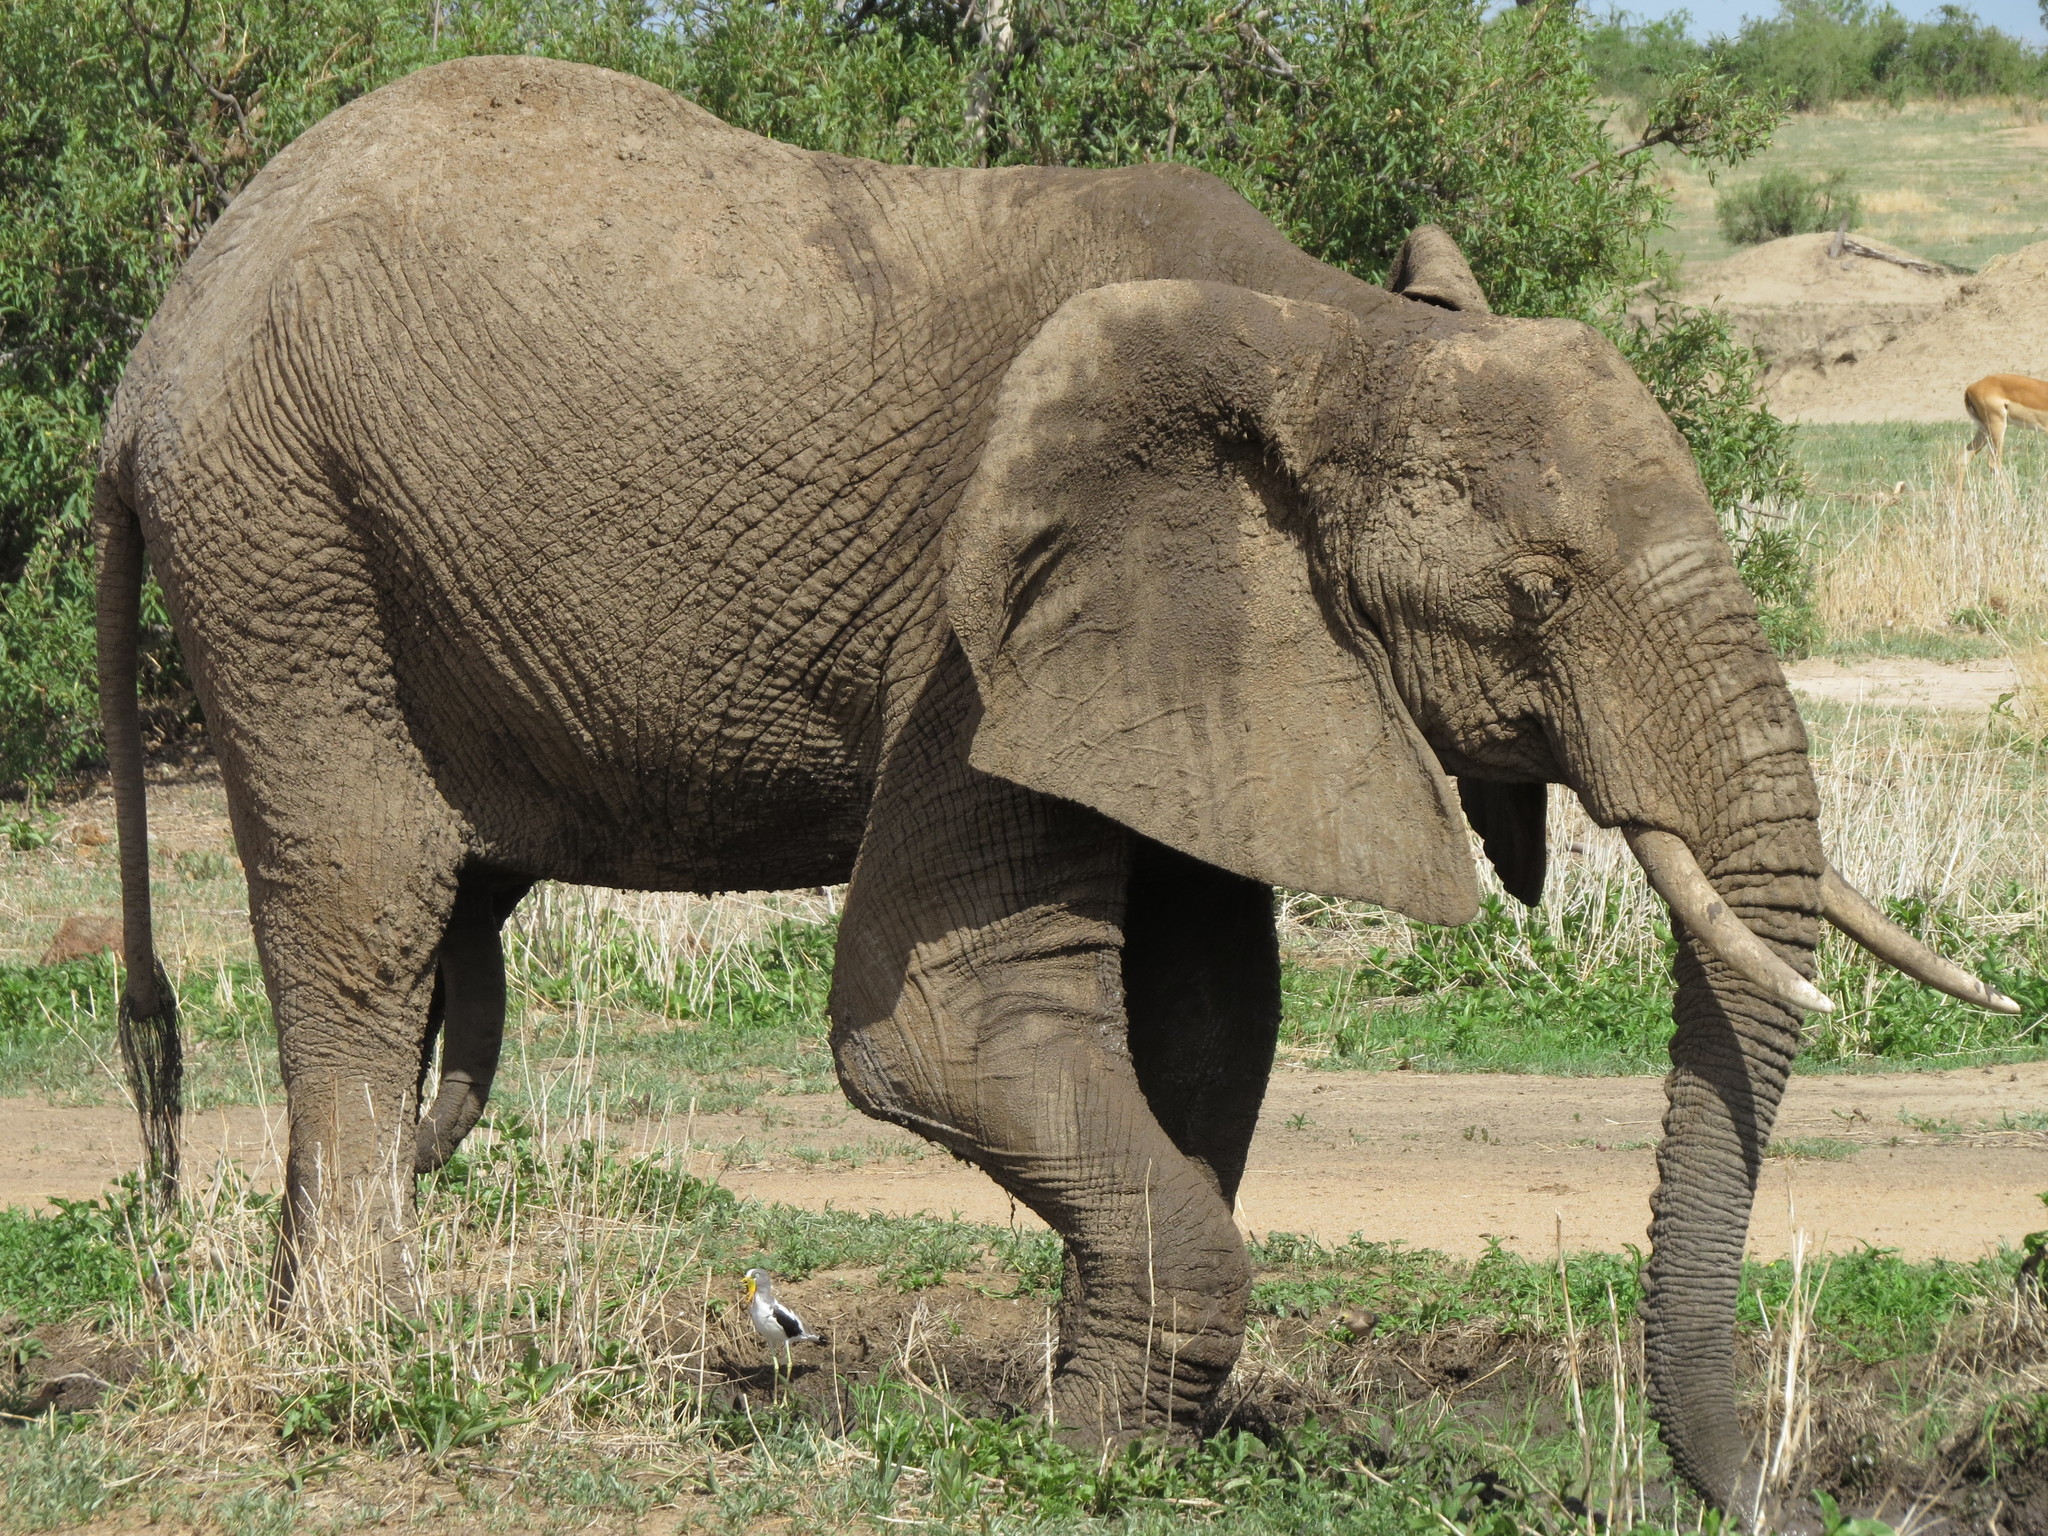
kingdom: Animalia
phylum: Chordata
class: Mammalia
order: Proboscidea
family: Elephantidae
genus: Loxodonta
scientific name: Loxodonta africana
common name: African elephant
